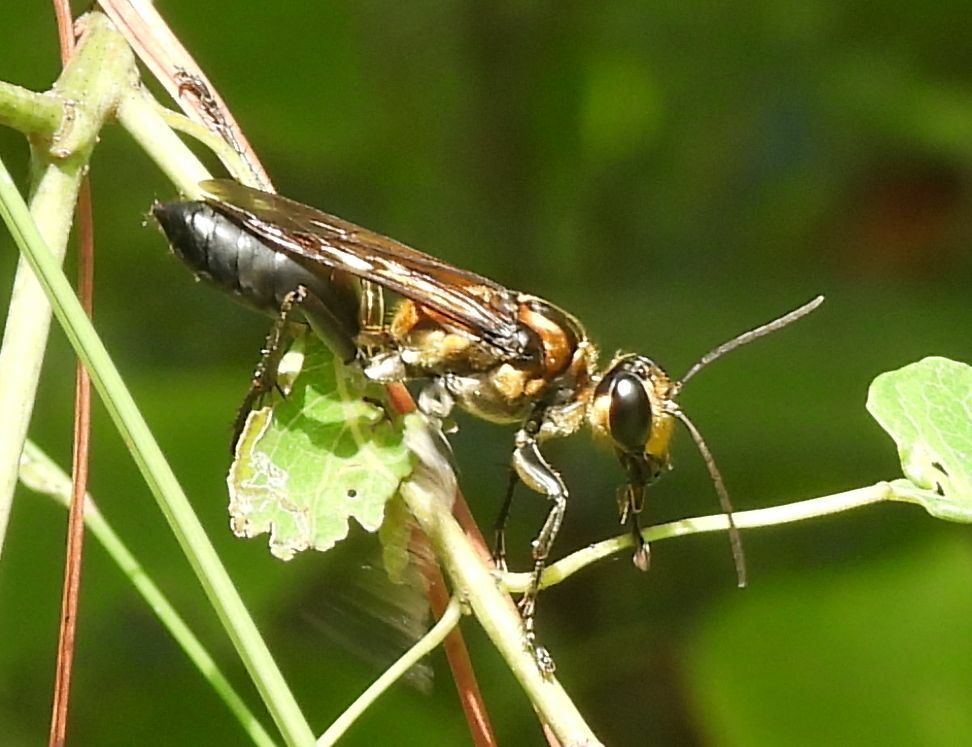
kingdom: Animalia
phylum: Arthropoda
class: Insecta
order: Hymenoptera
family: Sphecidae
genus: Sphex
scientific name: Sphex habenus
